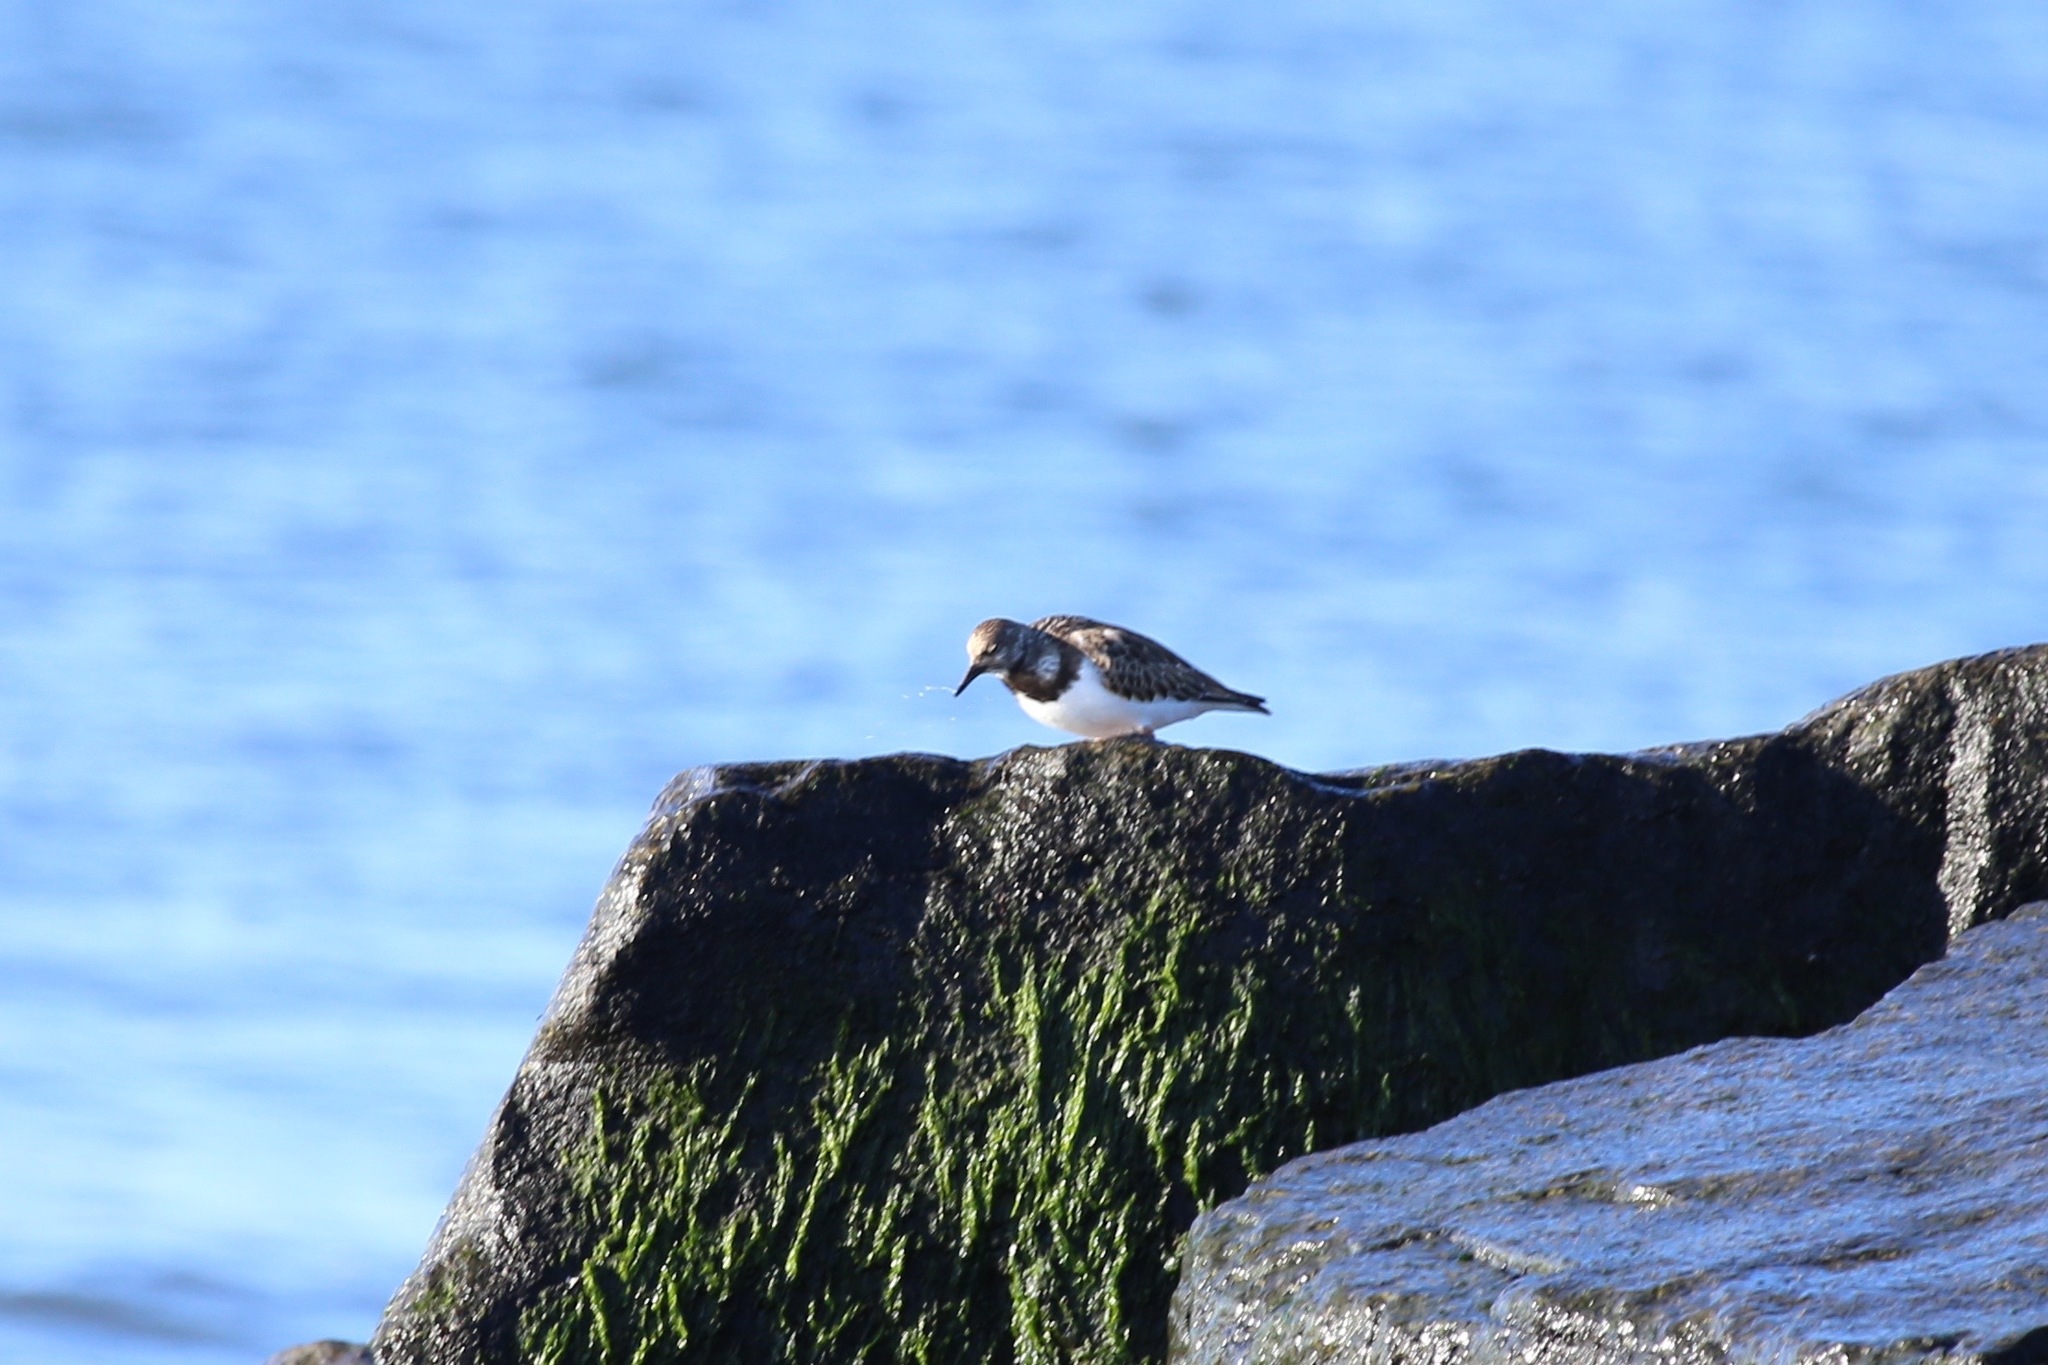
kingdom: Animalia
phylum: Chordata
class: Aves
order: Charadriiformes
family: Scolopacidae
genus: Arenaria
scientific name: Arenaria interpres
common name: Ruddy turnstone
